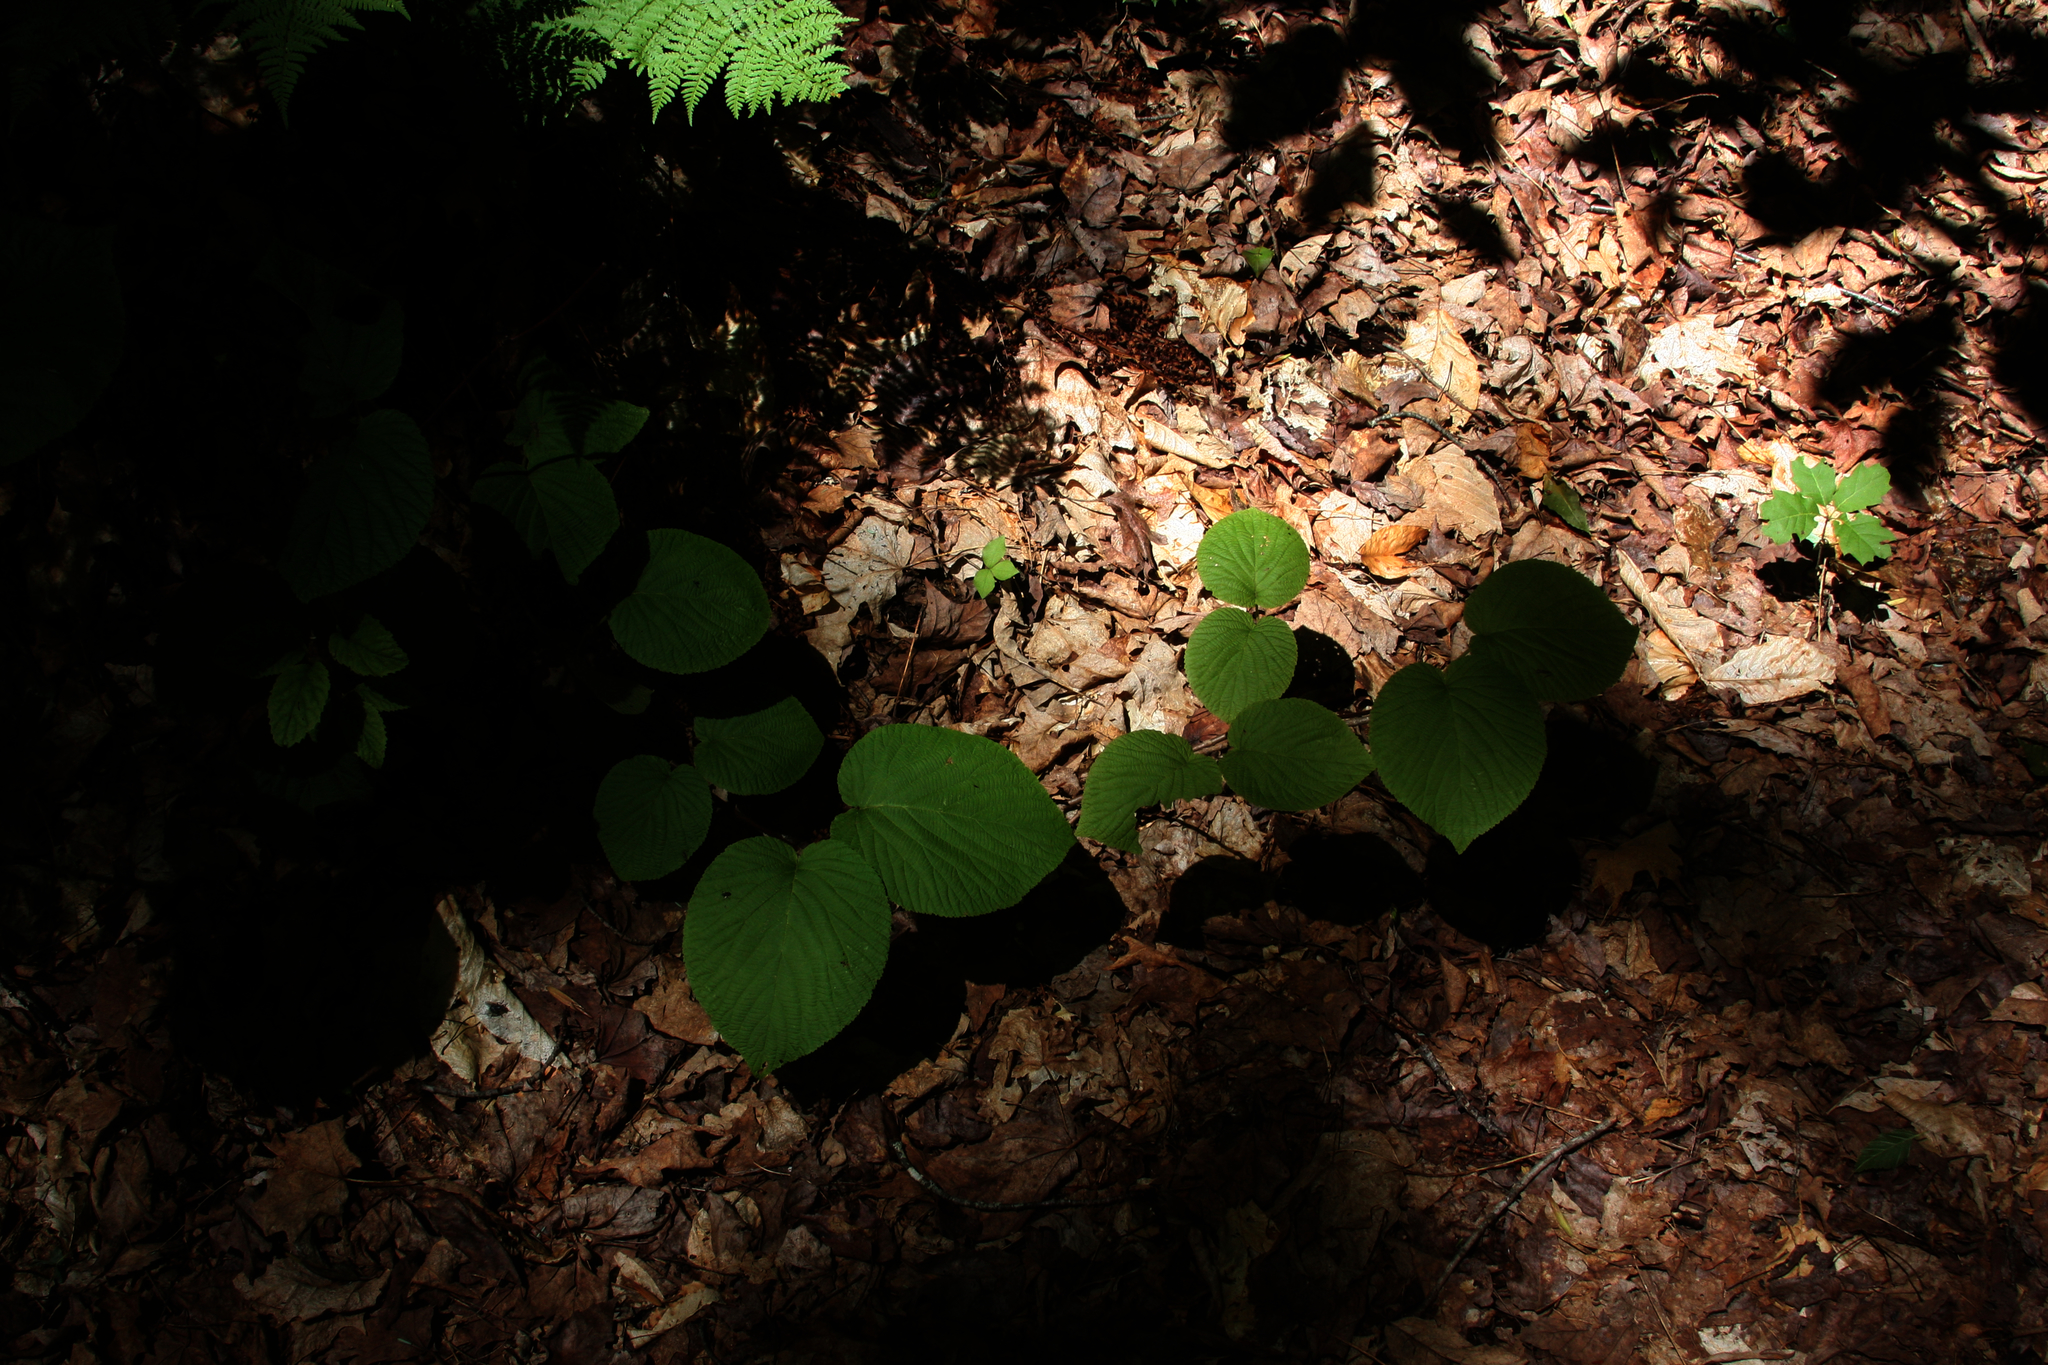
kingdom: Plantae
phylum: Tracheophyta
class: Magnoliopsida
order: Dipsacales
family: Viburnaceae
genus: Viburnum
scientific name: Viburnum lantanoides
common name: Hobblebush
